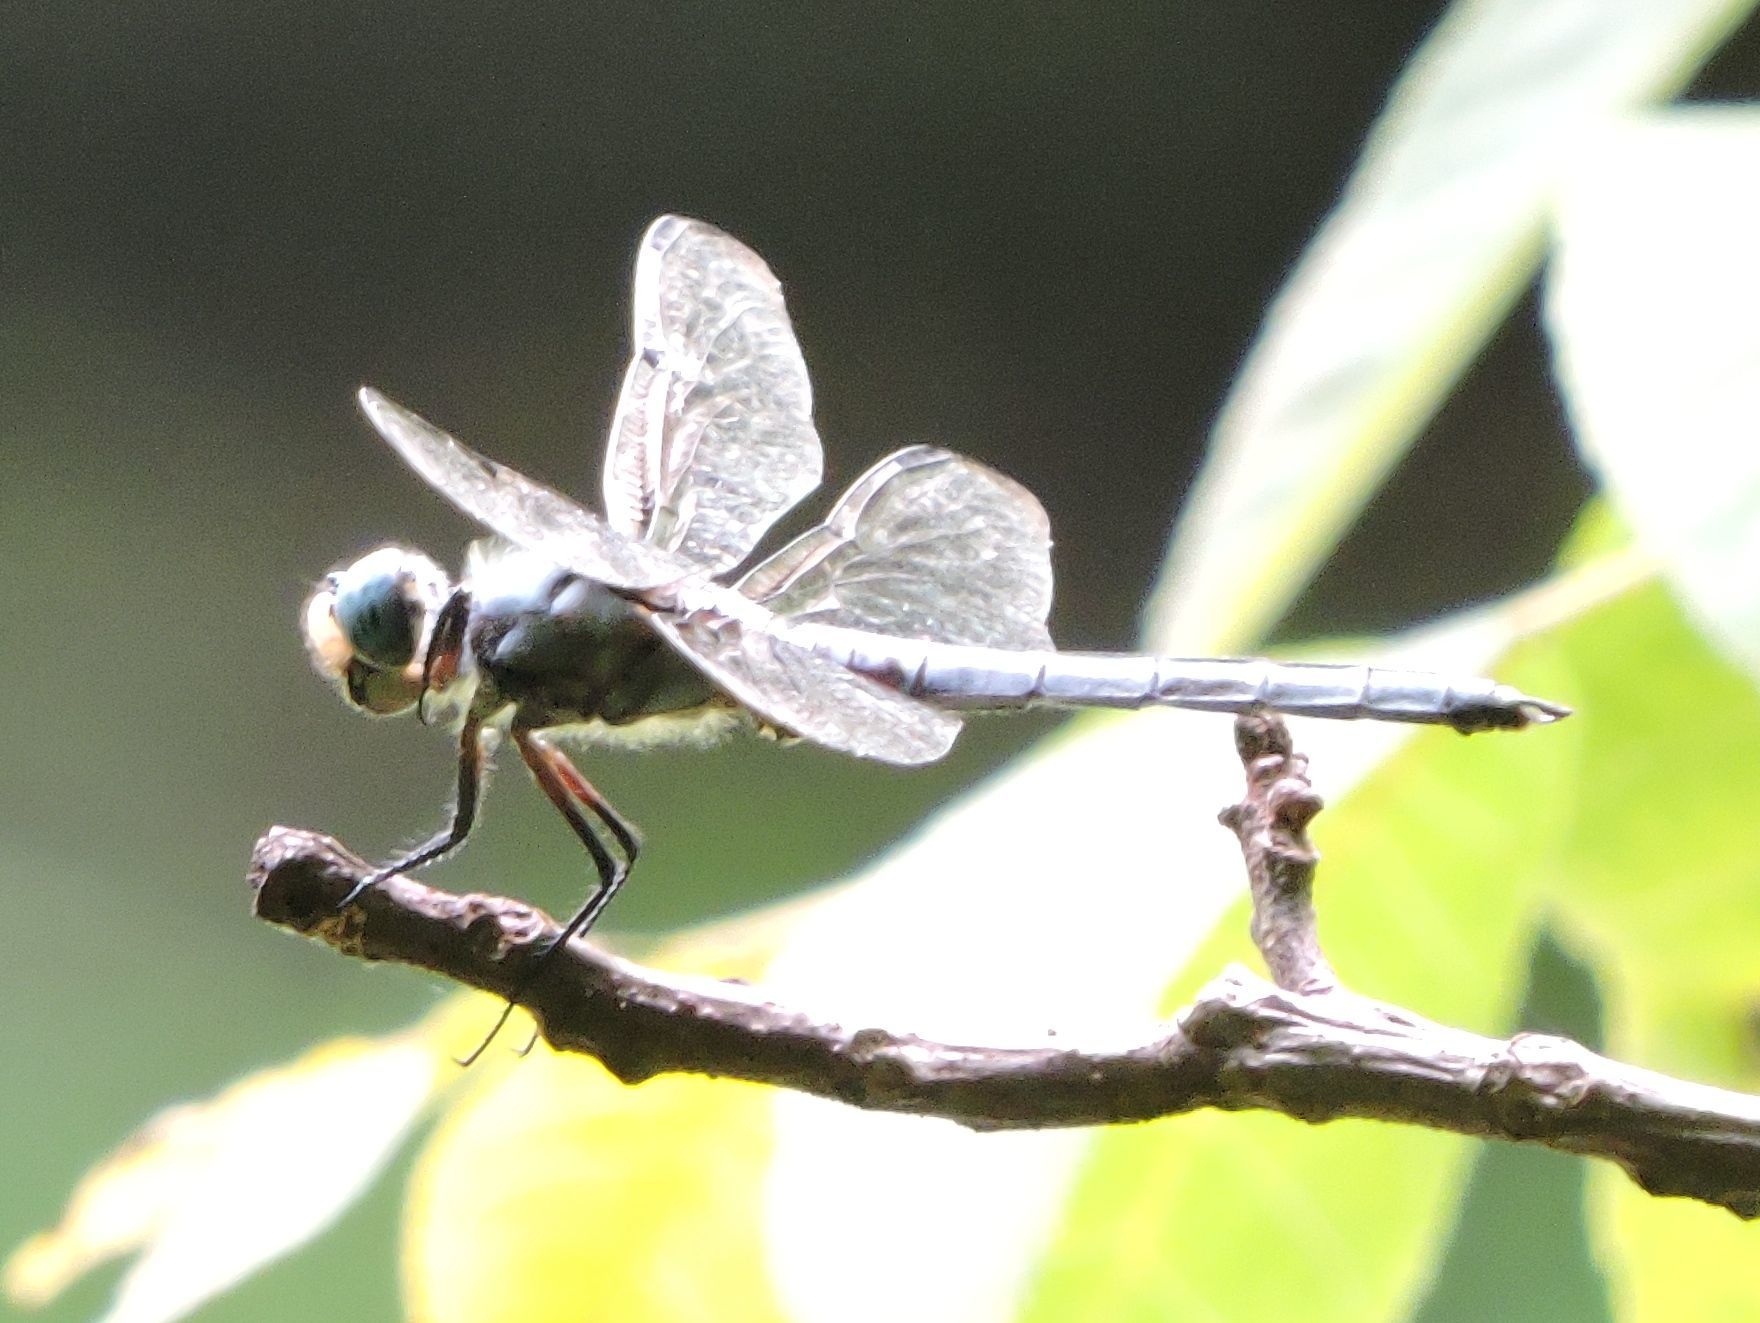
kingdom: Animalia
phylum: Arthropoda
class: Insecta
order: Odonata
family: Libellulidae
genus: Libellula
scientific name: Libellula vibrans
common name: Great blue skimmer
